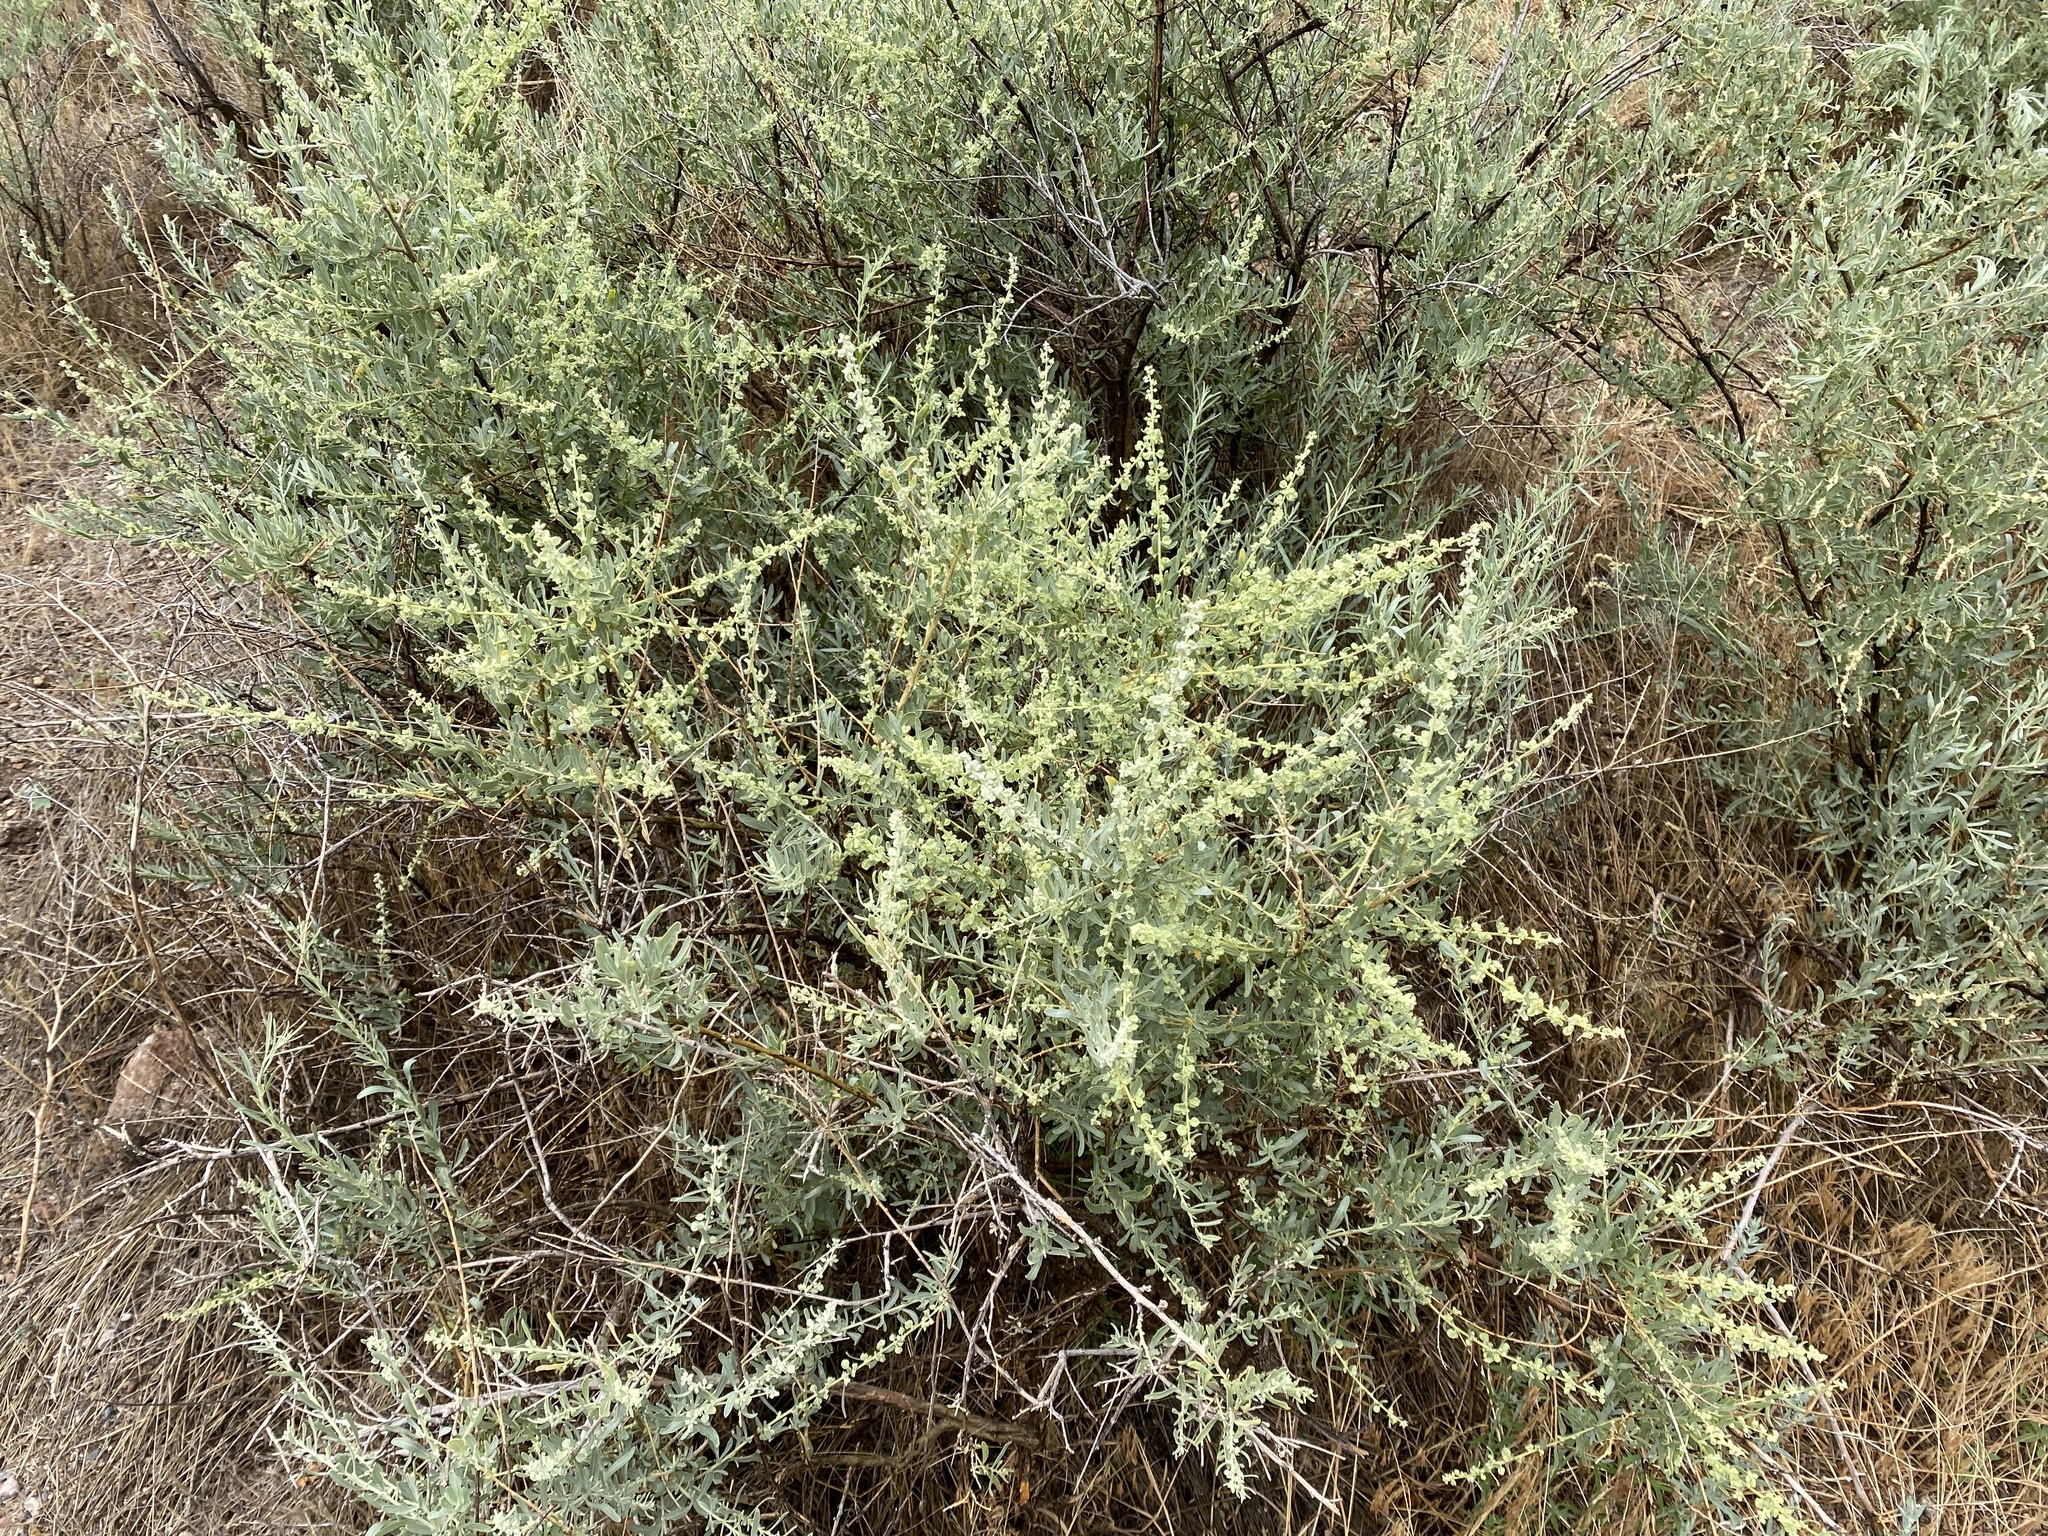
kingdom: Plantae
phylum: Tracheophyta
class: Magnoliopsida
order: Caryophyllales
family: Amaranthaceae
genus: Atriplex
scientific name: Atriplex canescens
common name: Four-wing saltbush
